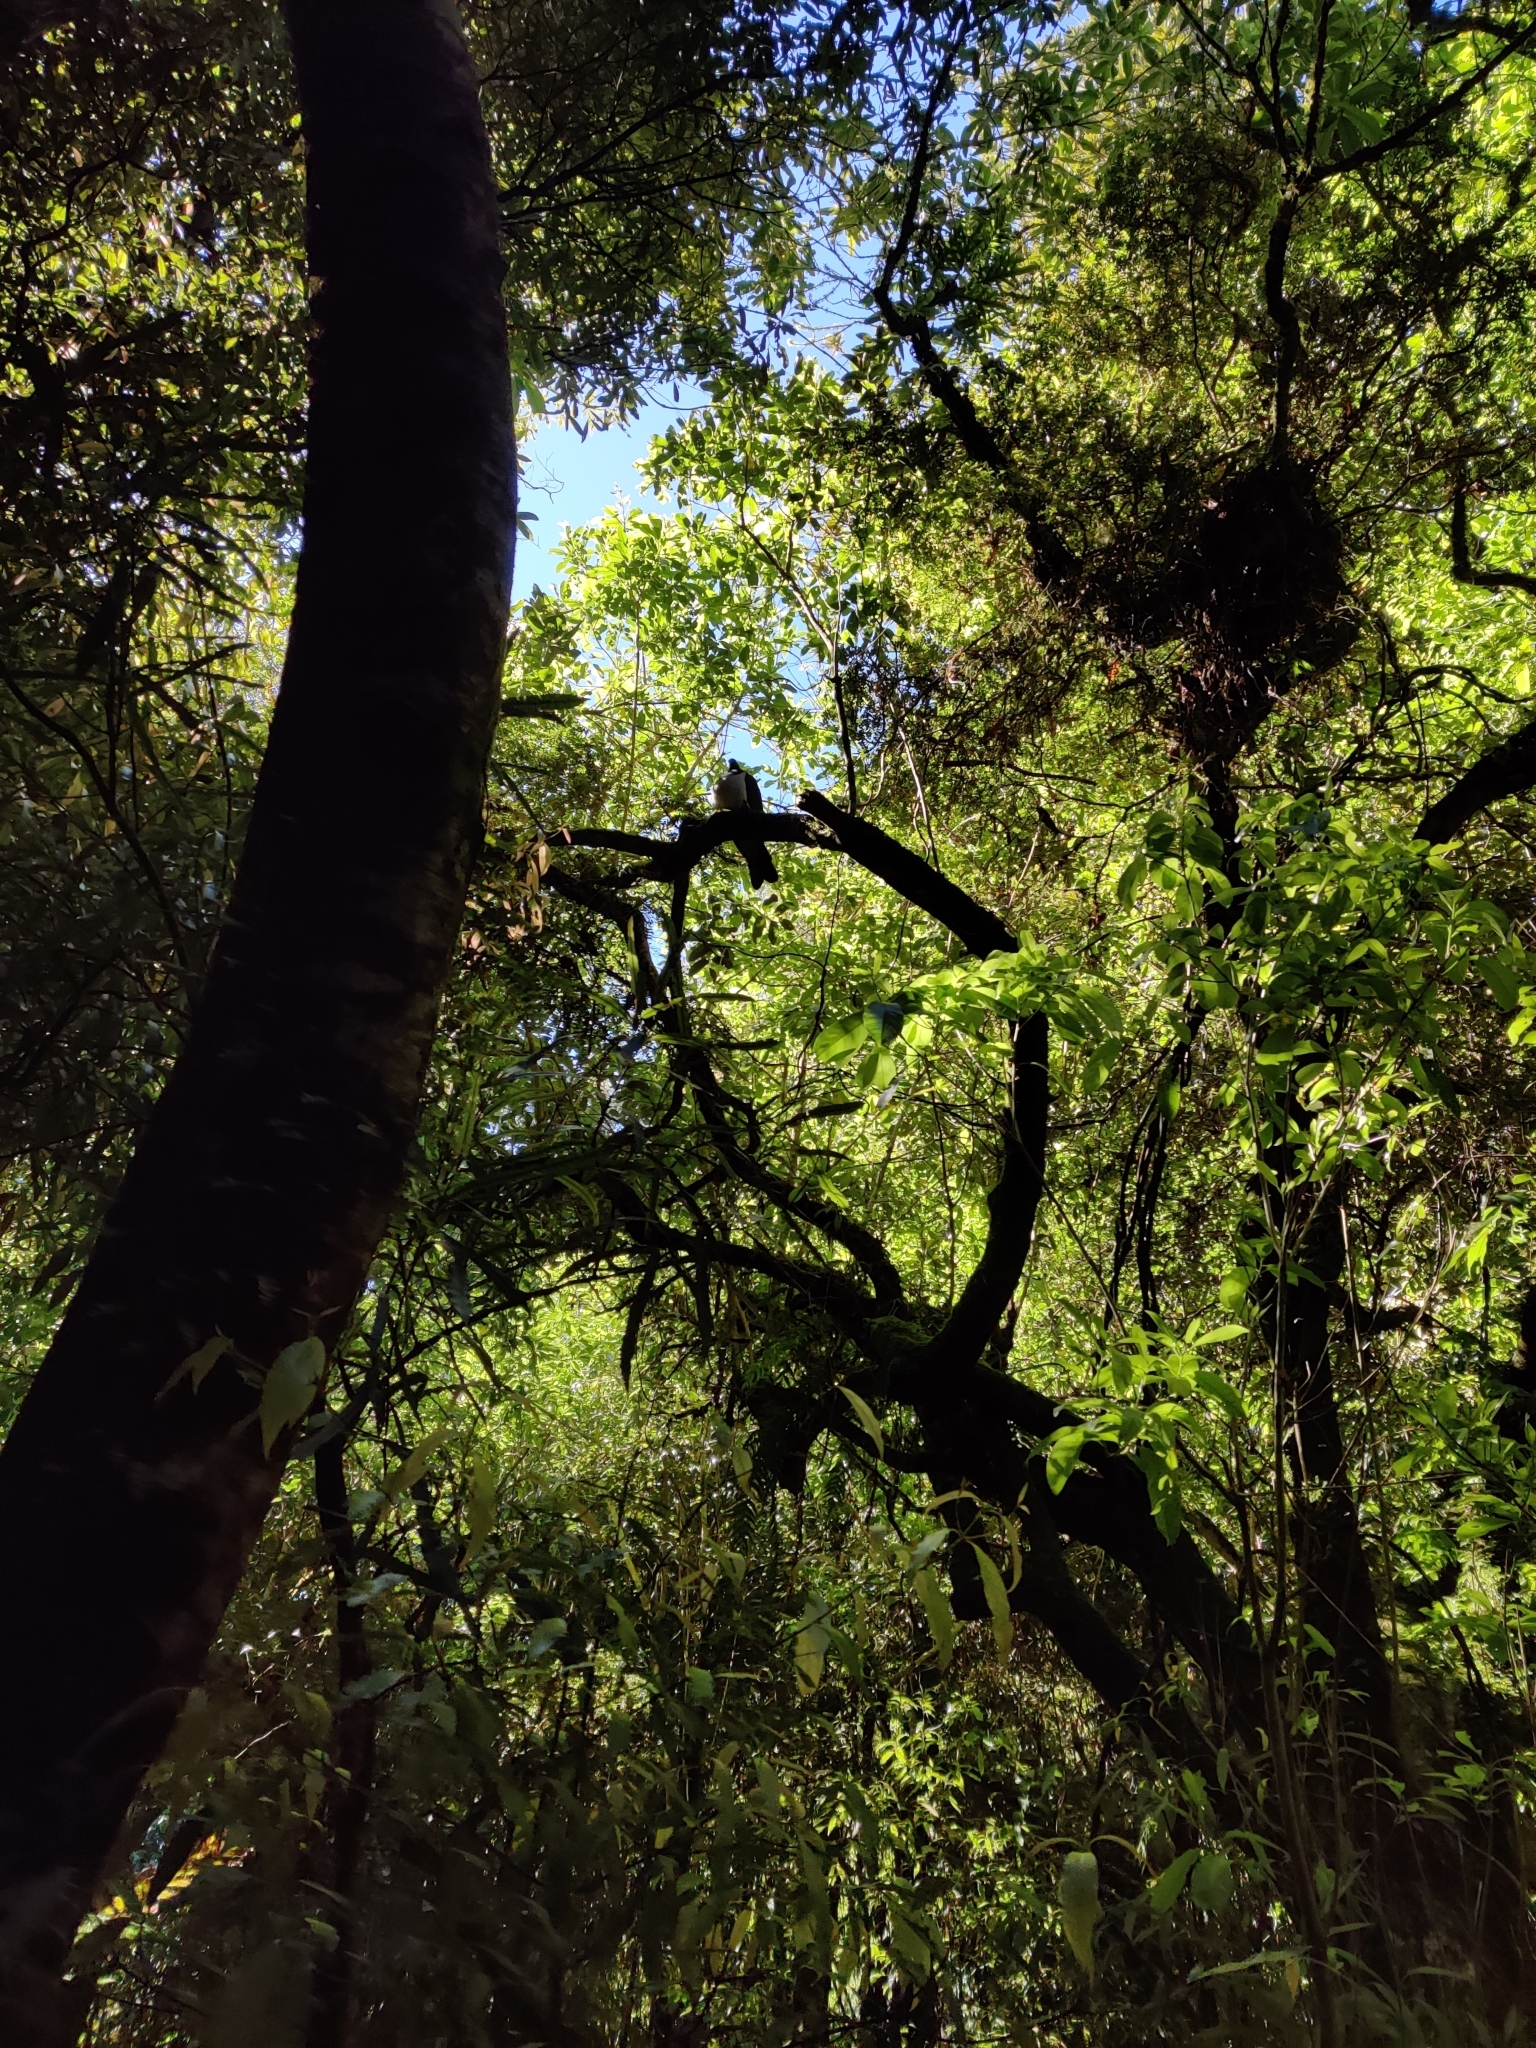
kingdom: Animalia
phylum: Chordata
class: Aves
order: Columbiformes
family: Columbidae
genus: Hemiphaga
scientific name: Hemiphaga novaeseelandiae
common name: New zealand pigeon
